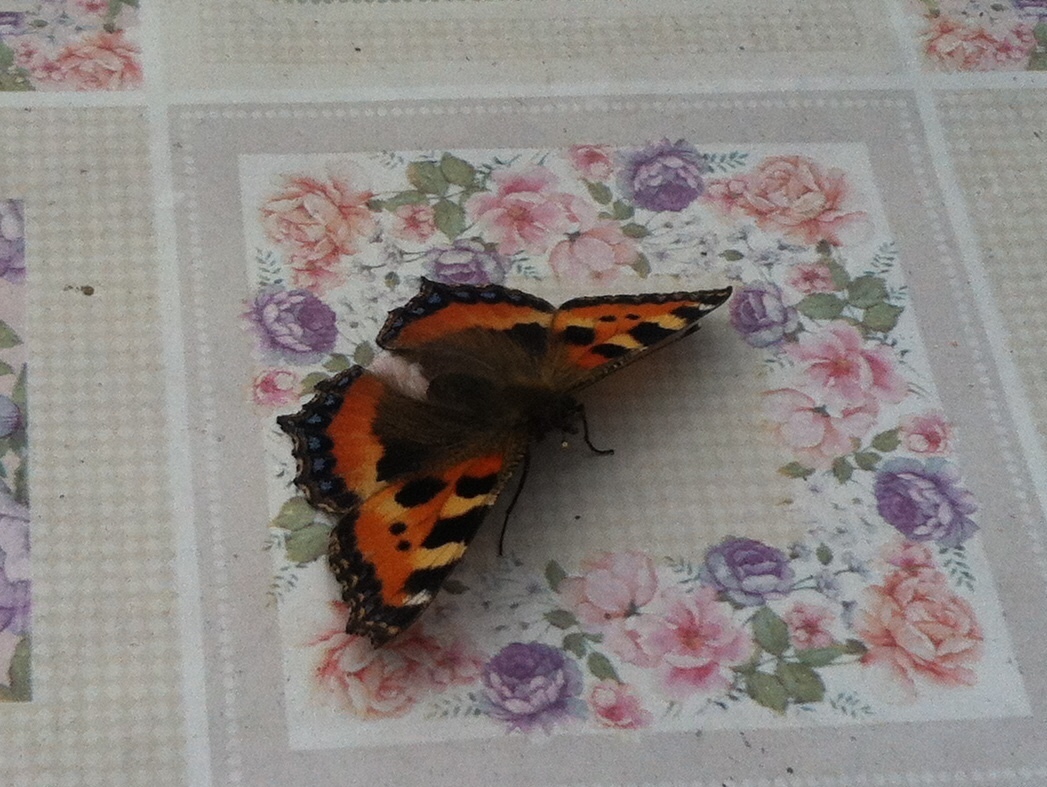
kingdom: Animalia
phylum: Arthropoda
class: Insecta
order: Lepidoptera
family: Nymphalidae
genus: Aglais
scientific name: Aglais urticae
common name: Small tortoiseshell
